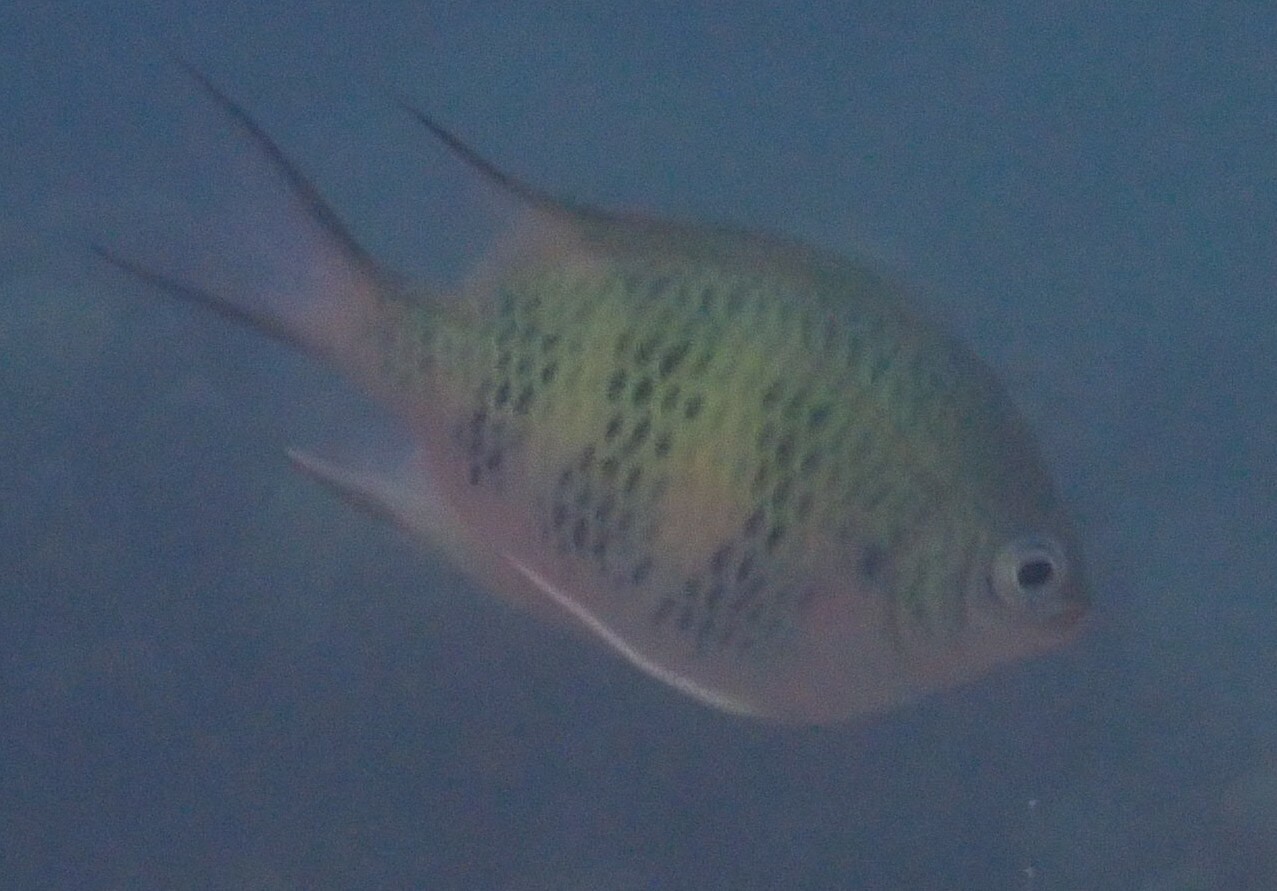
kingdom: Animalia
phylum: Chordata
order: Perciformes
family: Pomacentridae
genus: Amblyglyphidodon
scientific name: Amblyglyphidodon curacao
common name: Staghorn damsel
